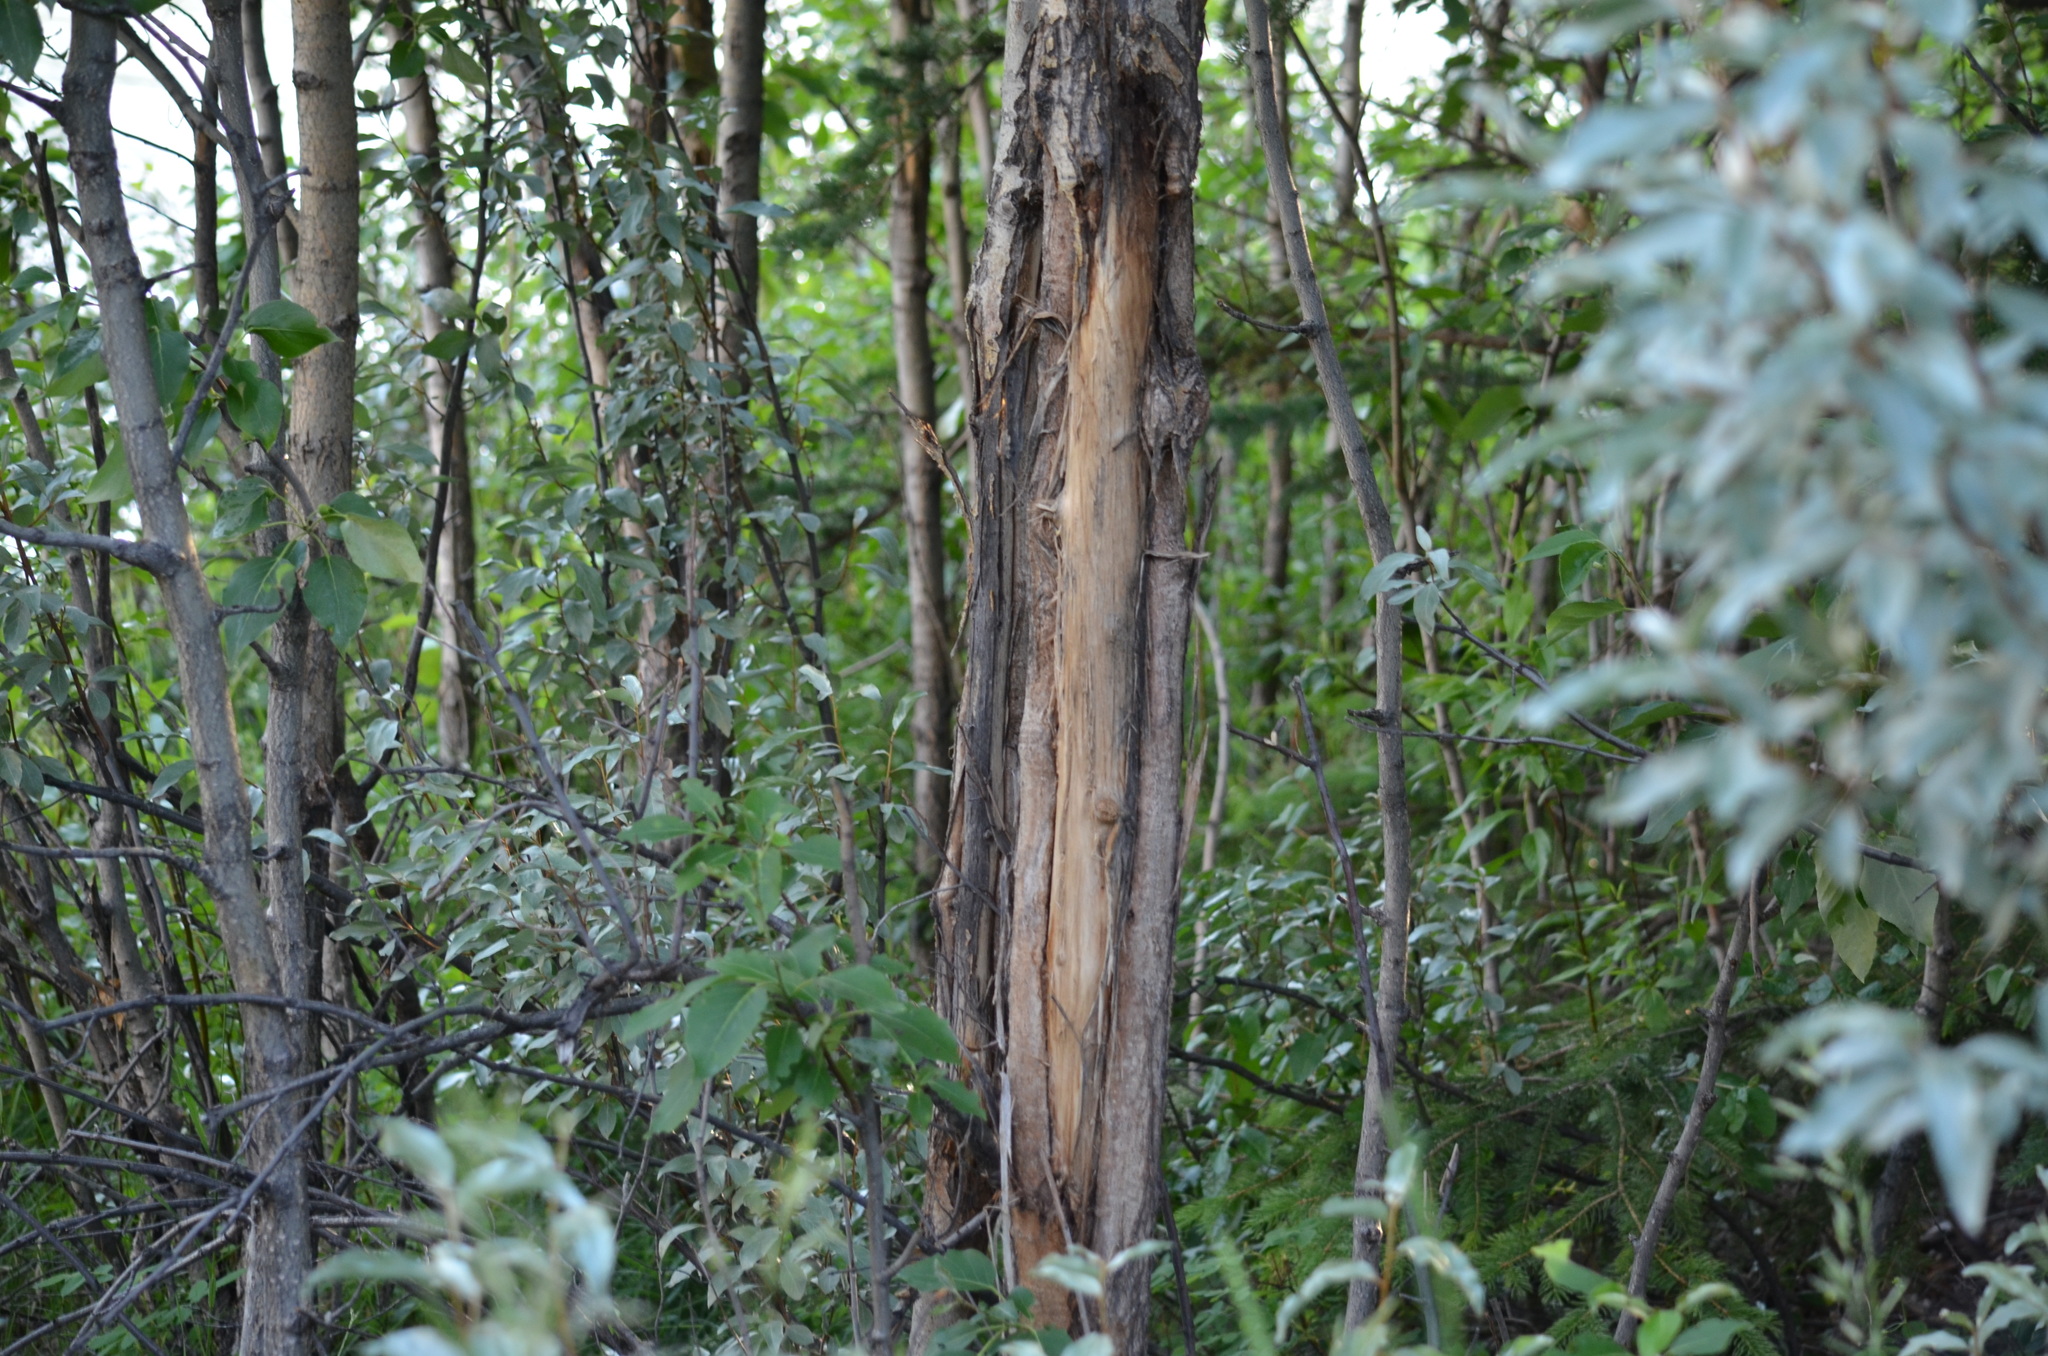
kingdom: Plantae
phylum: Tracheophyta
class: Magnoliopsida
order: Malpighiales
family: Salicaceae
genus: Populus
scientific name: Populus trichocarpa
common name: Black cottonwood
